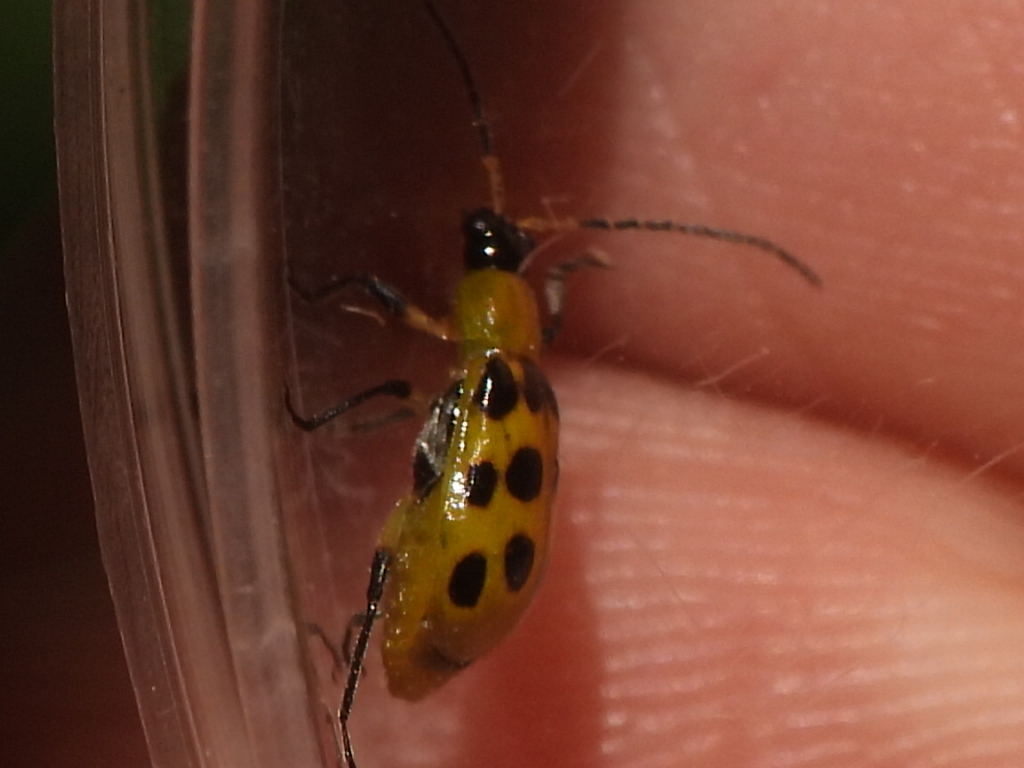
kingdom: Animalia
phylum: Arthropoda
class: Insecta
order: Coleoptera
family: Chrysomelidae
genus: Diabrotica
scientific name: Diabrotica undecimpunctata
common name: Spotted cucumber beetle
